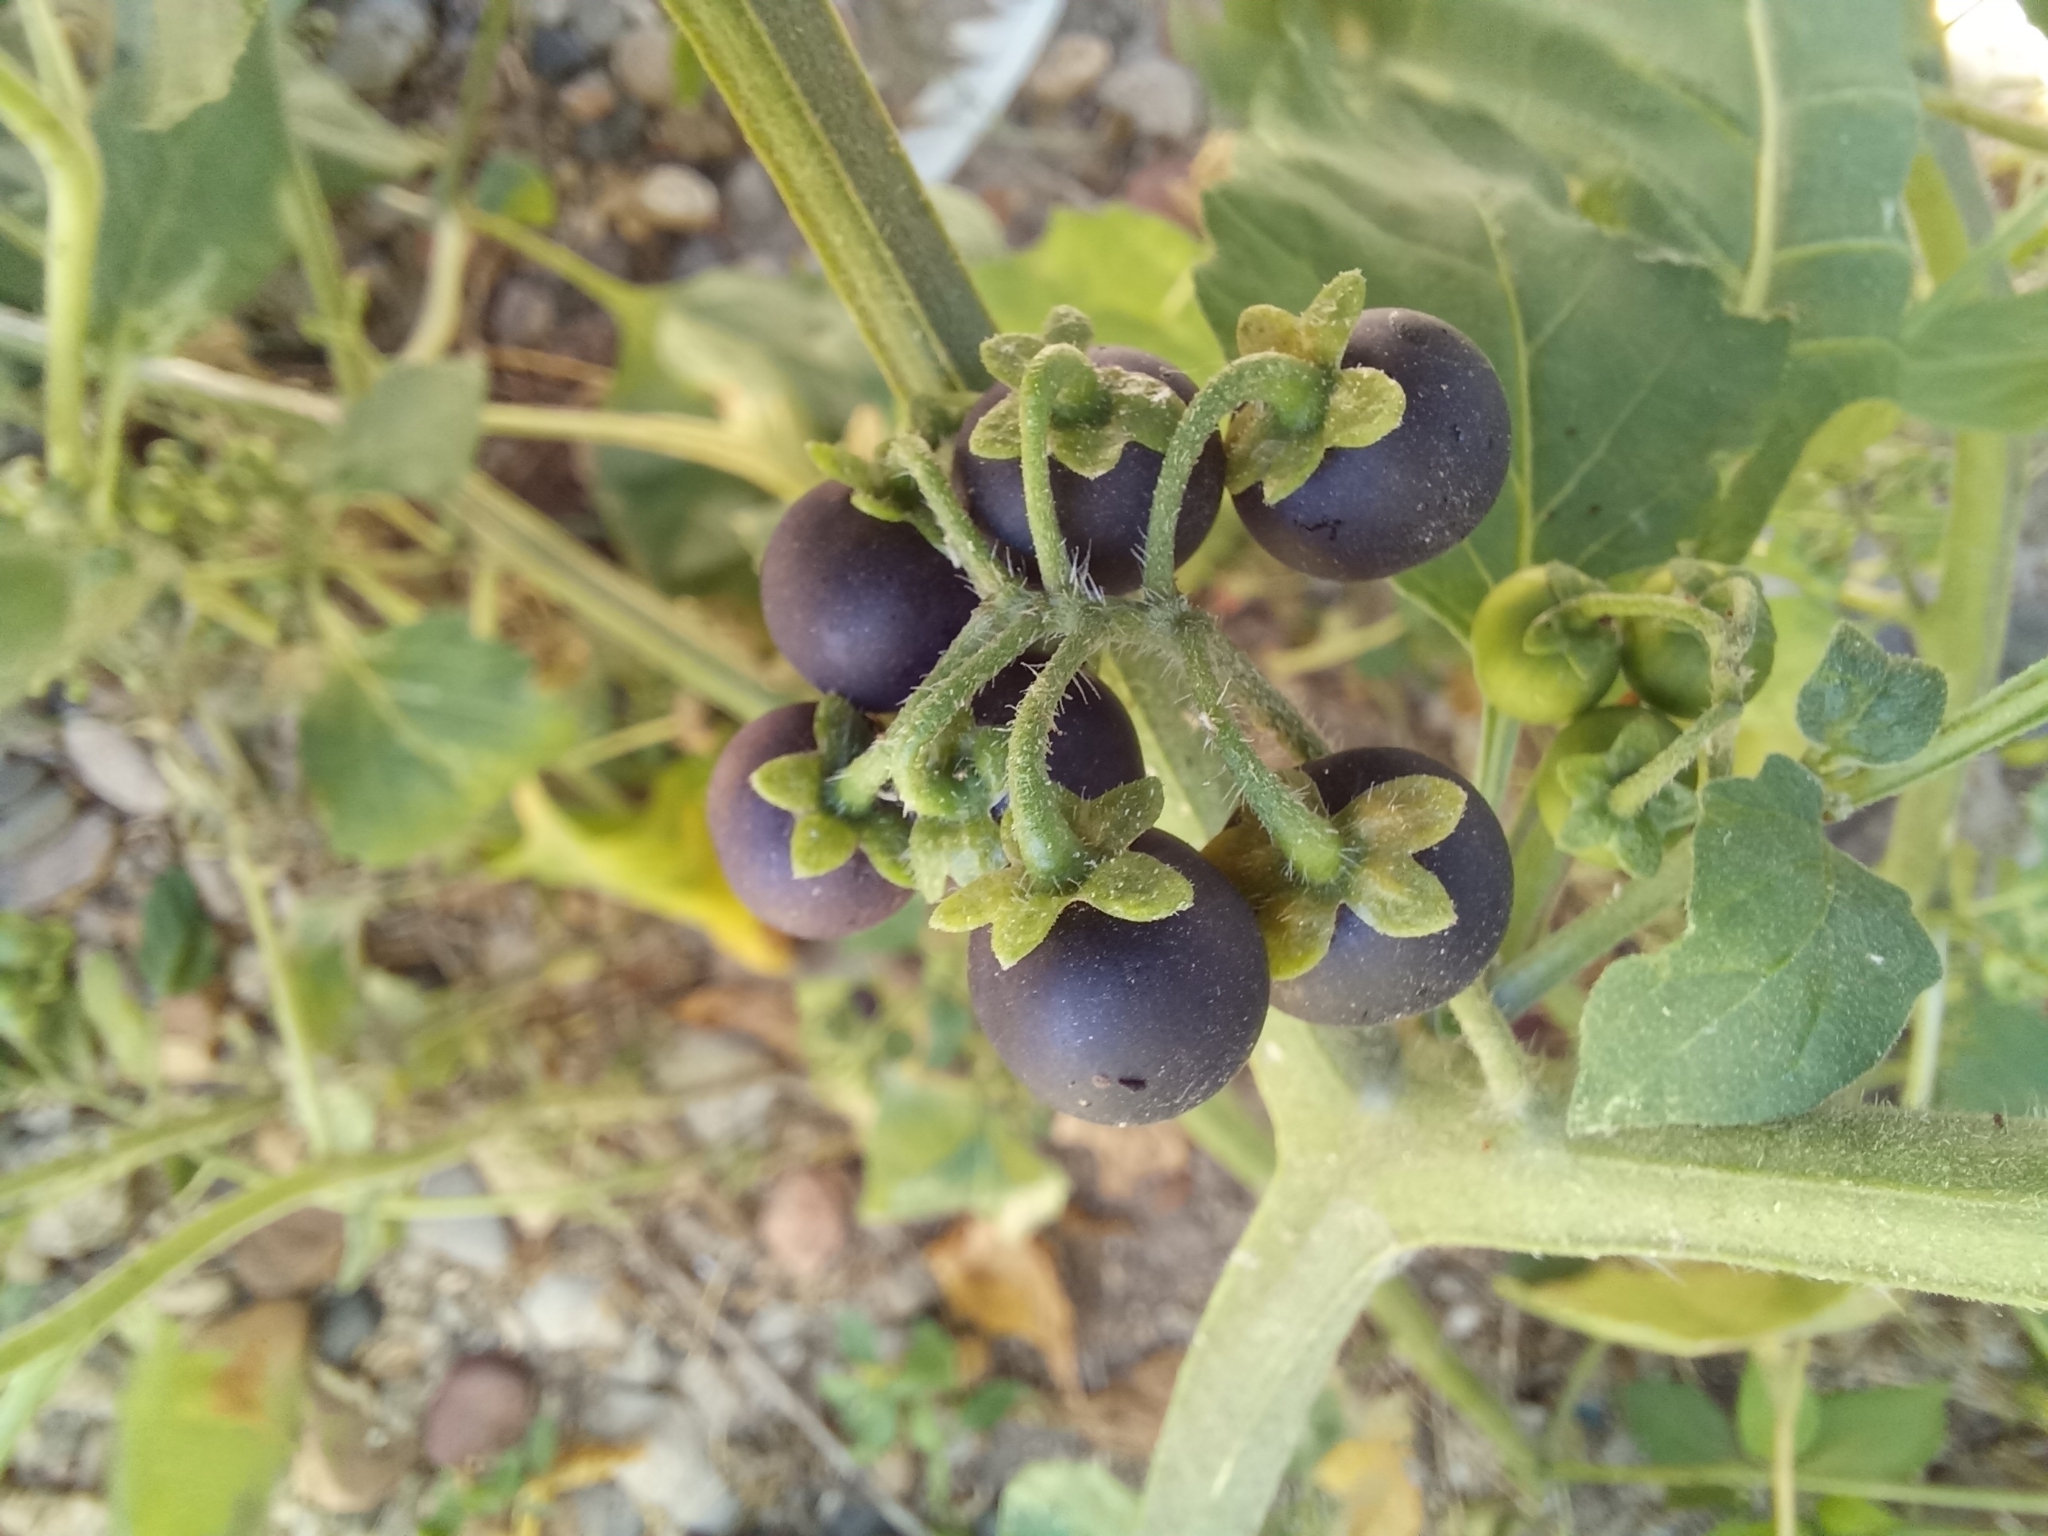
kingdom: Plantae
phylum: Tracheophyta
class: Magnoliopsida
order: Solanales
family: Solanaceae
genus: Solanum
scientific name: Solanum nigrum
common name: Black nightshade
